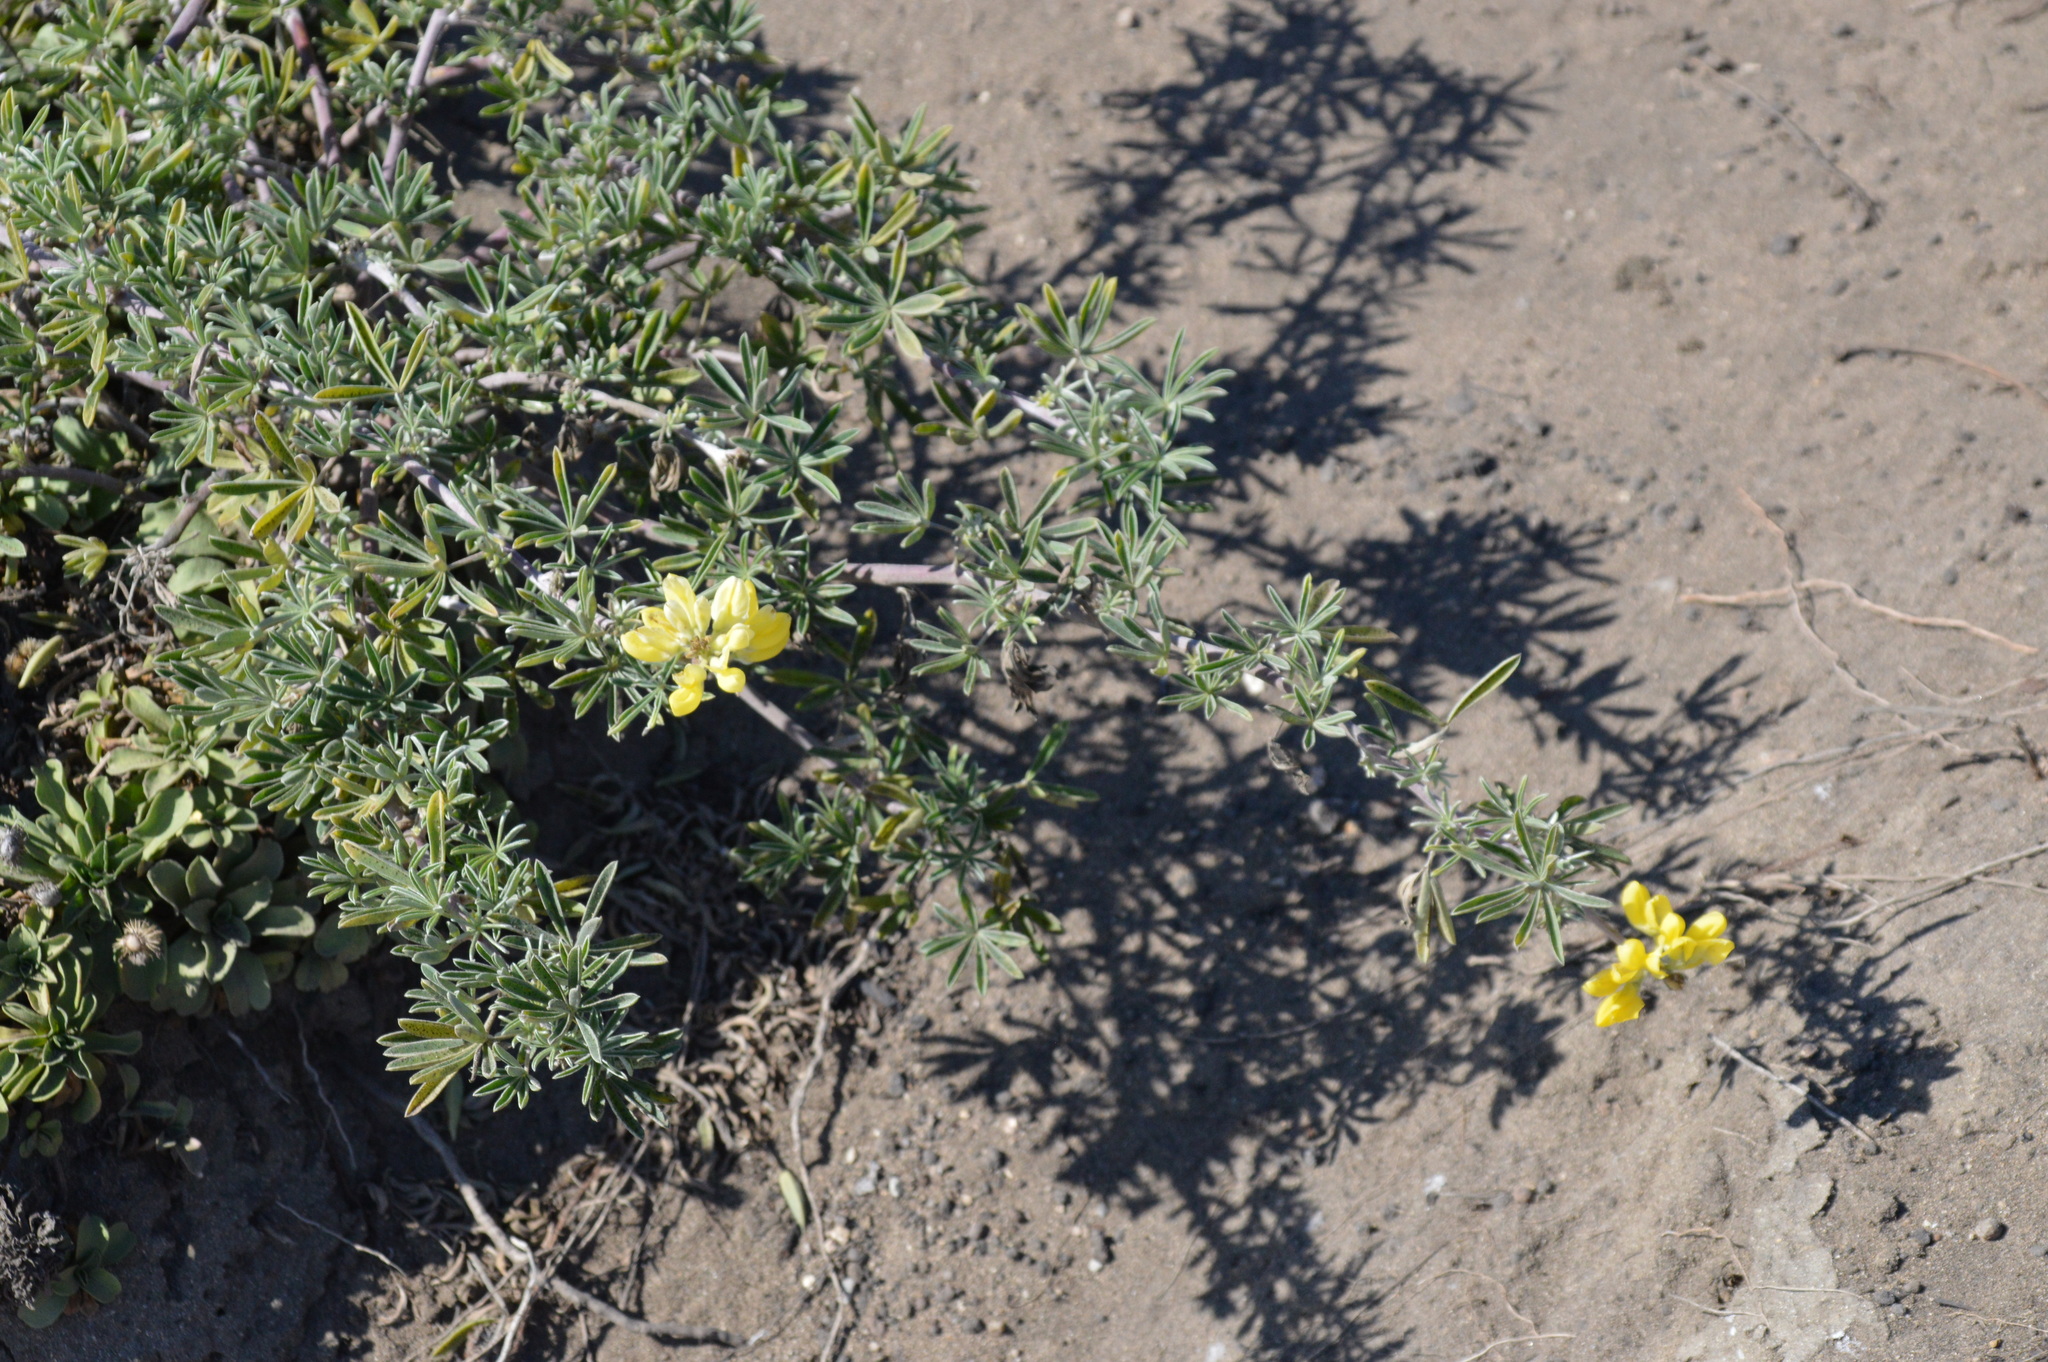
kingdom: Plantae
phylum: Tracheophyta
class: Magnoliopsida
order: Fabales
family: Fabaceae
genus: Lupinus
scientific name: Lupinus arboreus
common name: Yellow bush lupine
